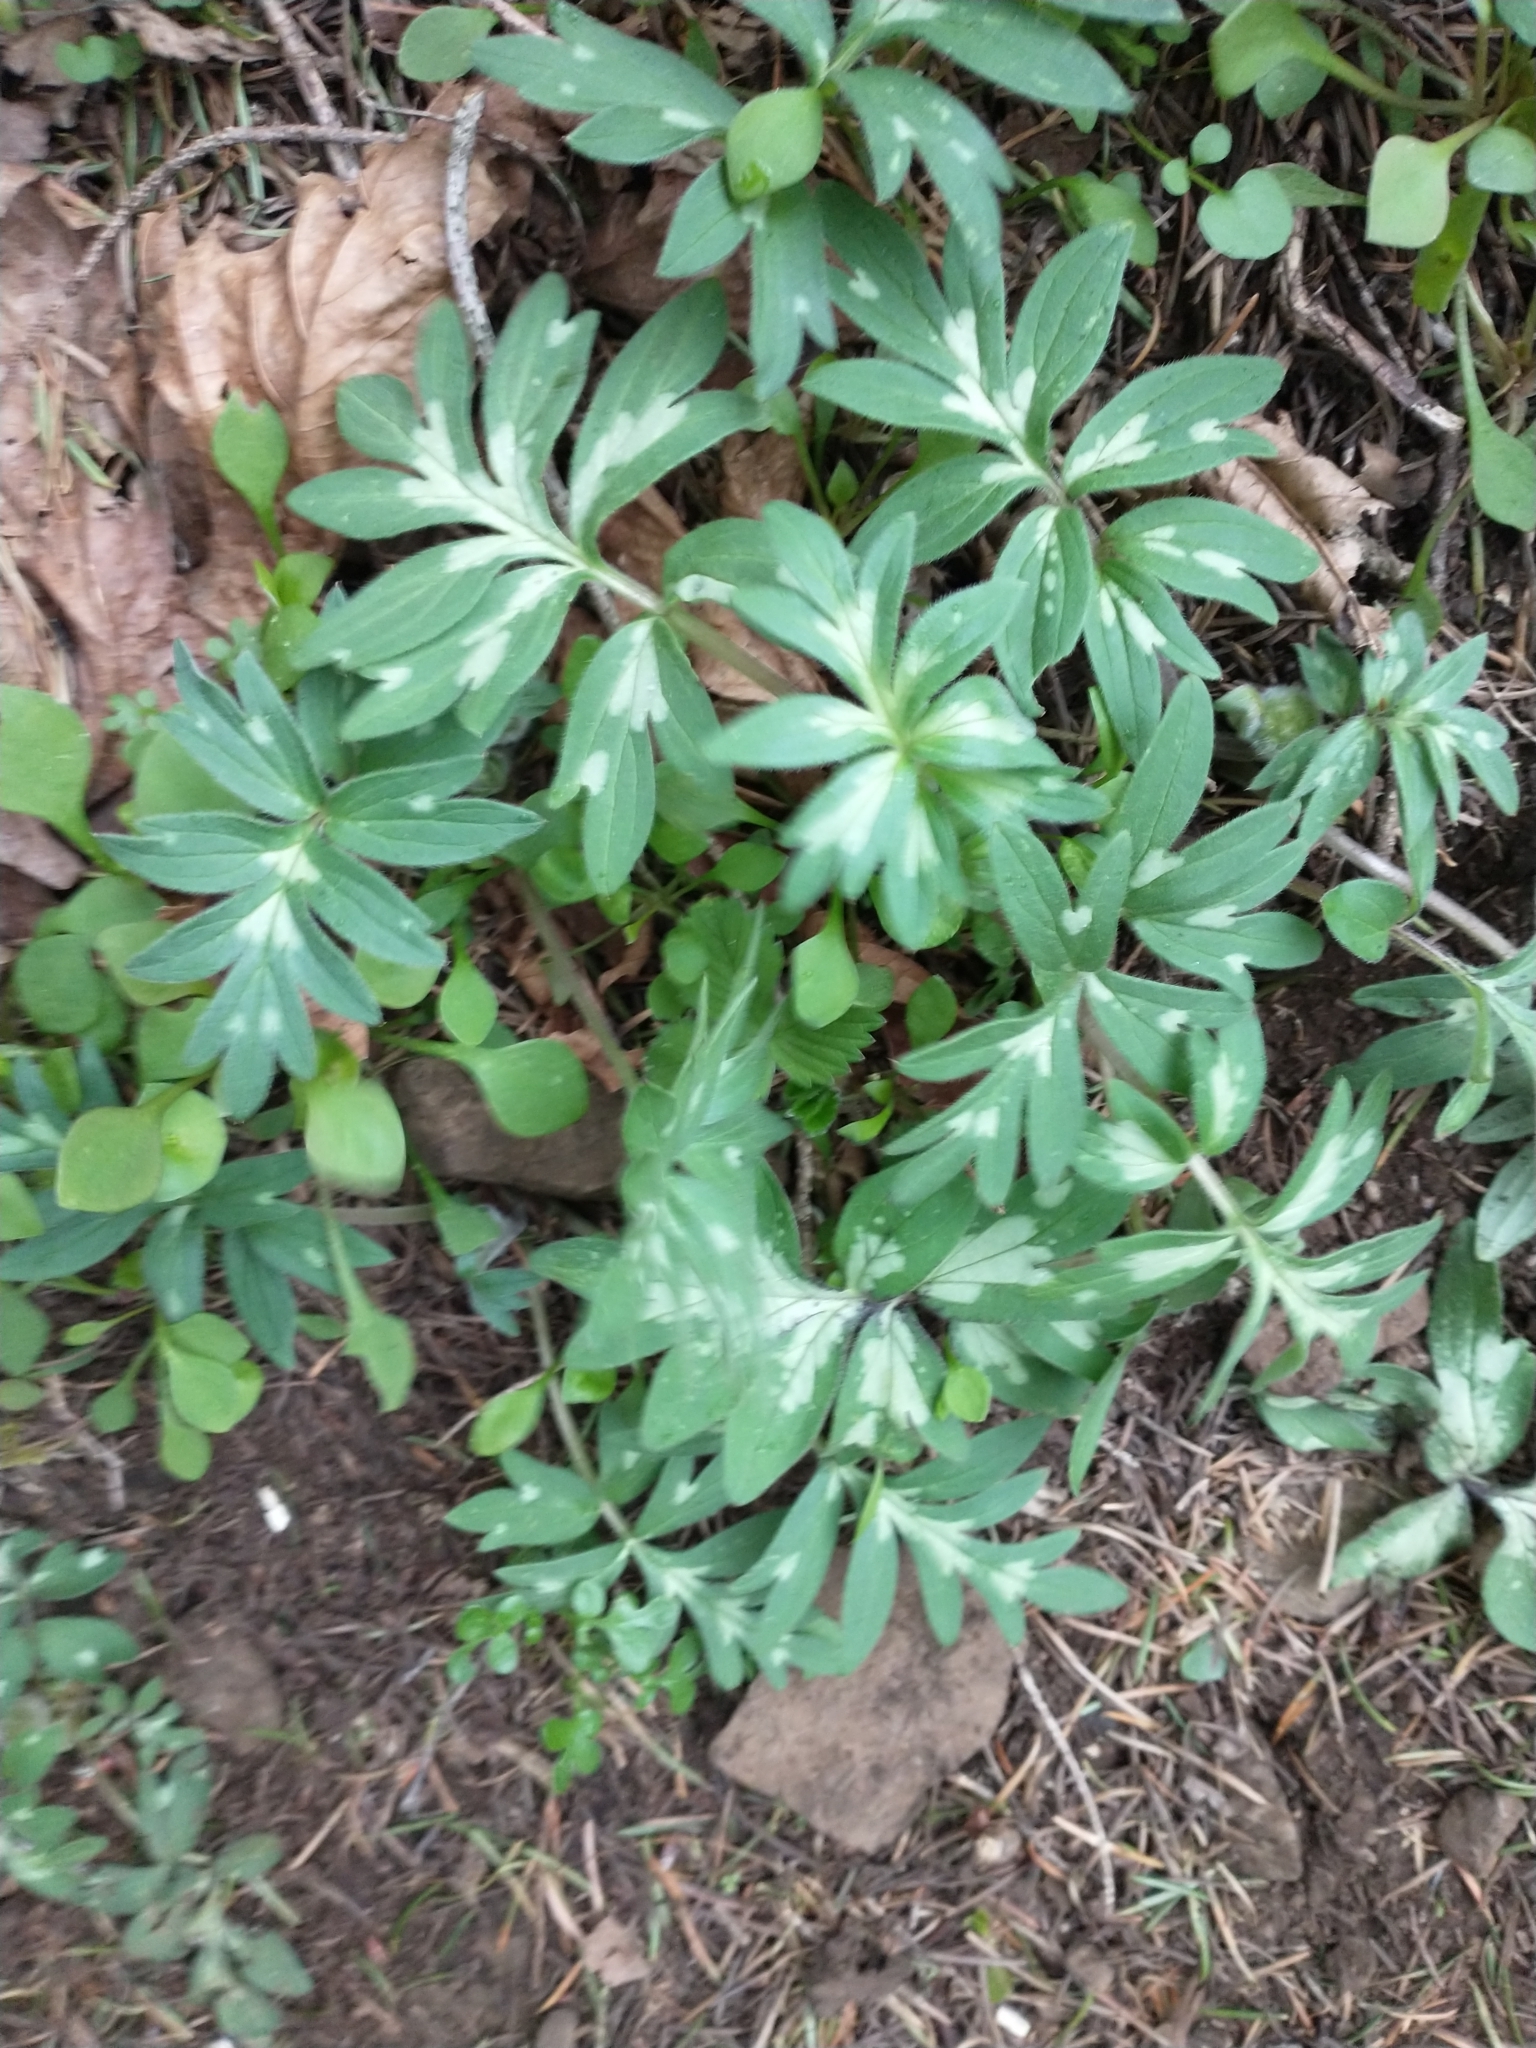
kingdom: Plantae
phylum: Tracheophyta
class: Magnoliopsida
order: Boraginales
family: Hydrophyllaceae
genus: Hydrophyllum
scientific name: Hydrophyllum capitatum
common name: Woollen-breeches
